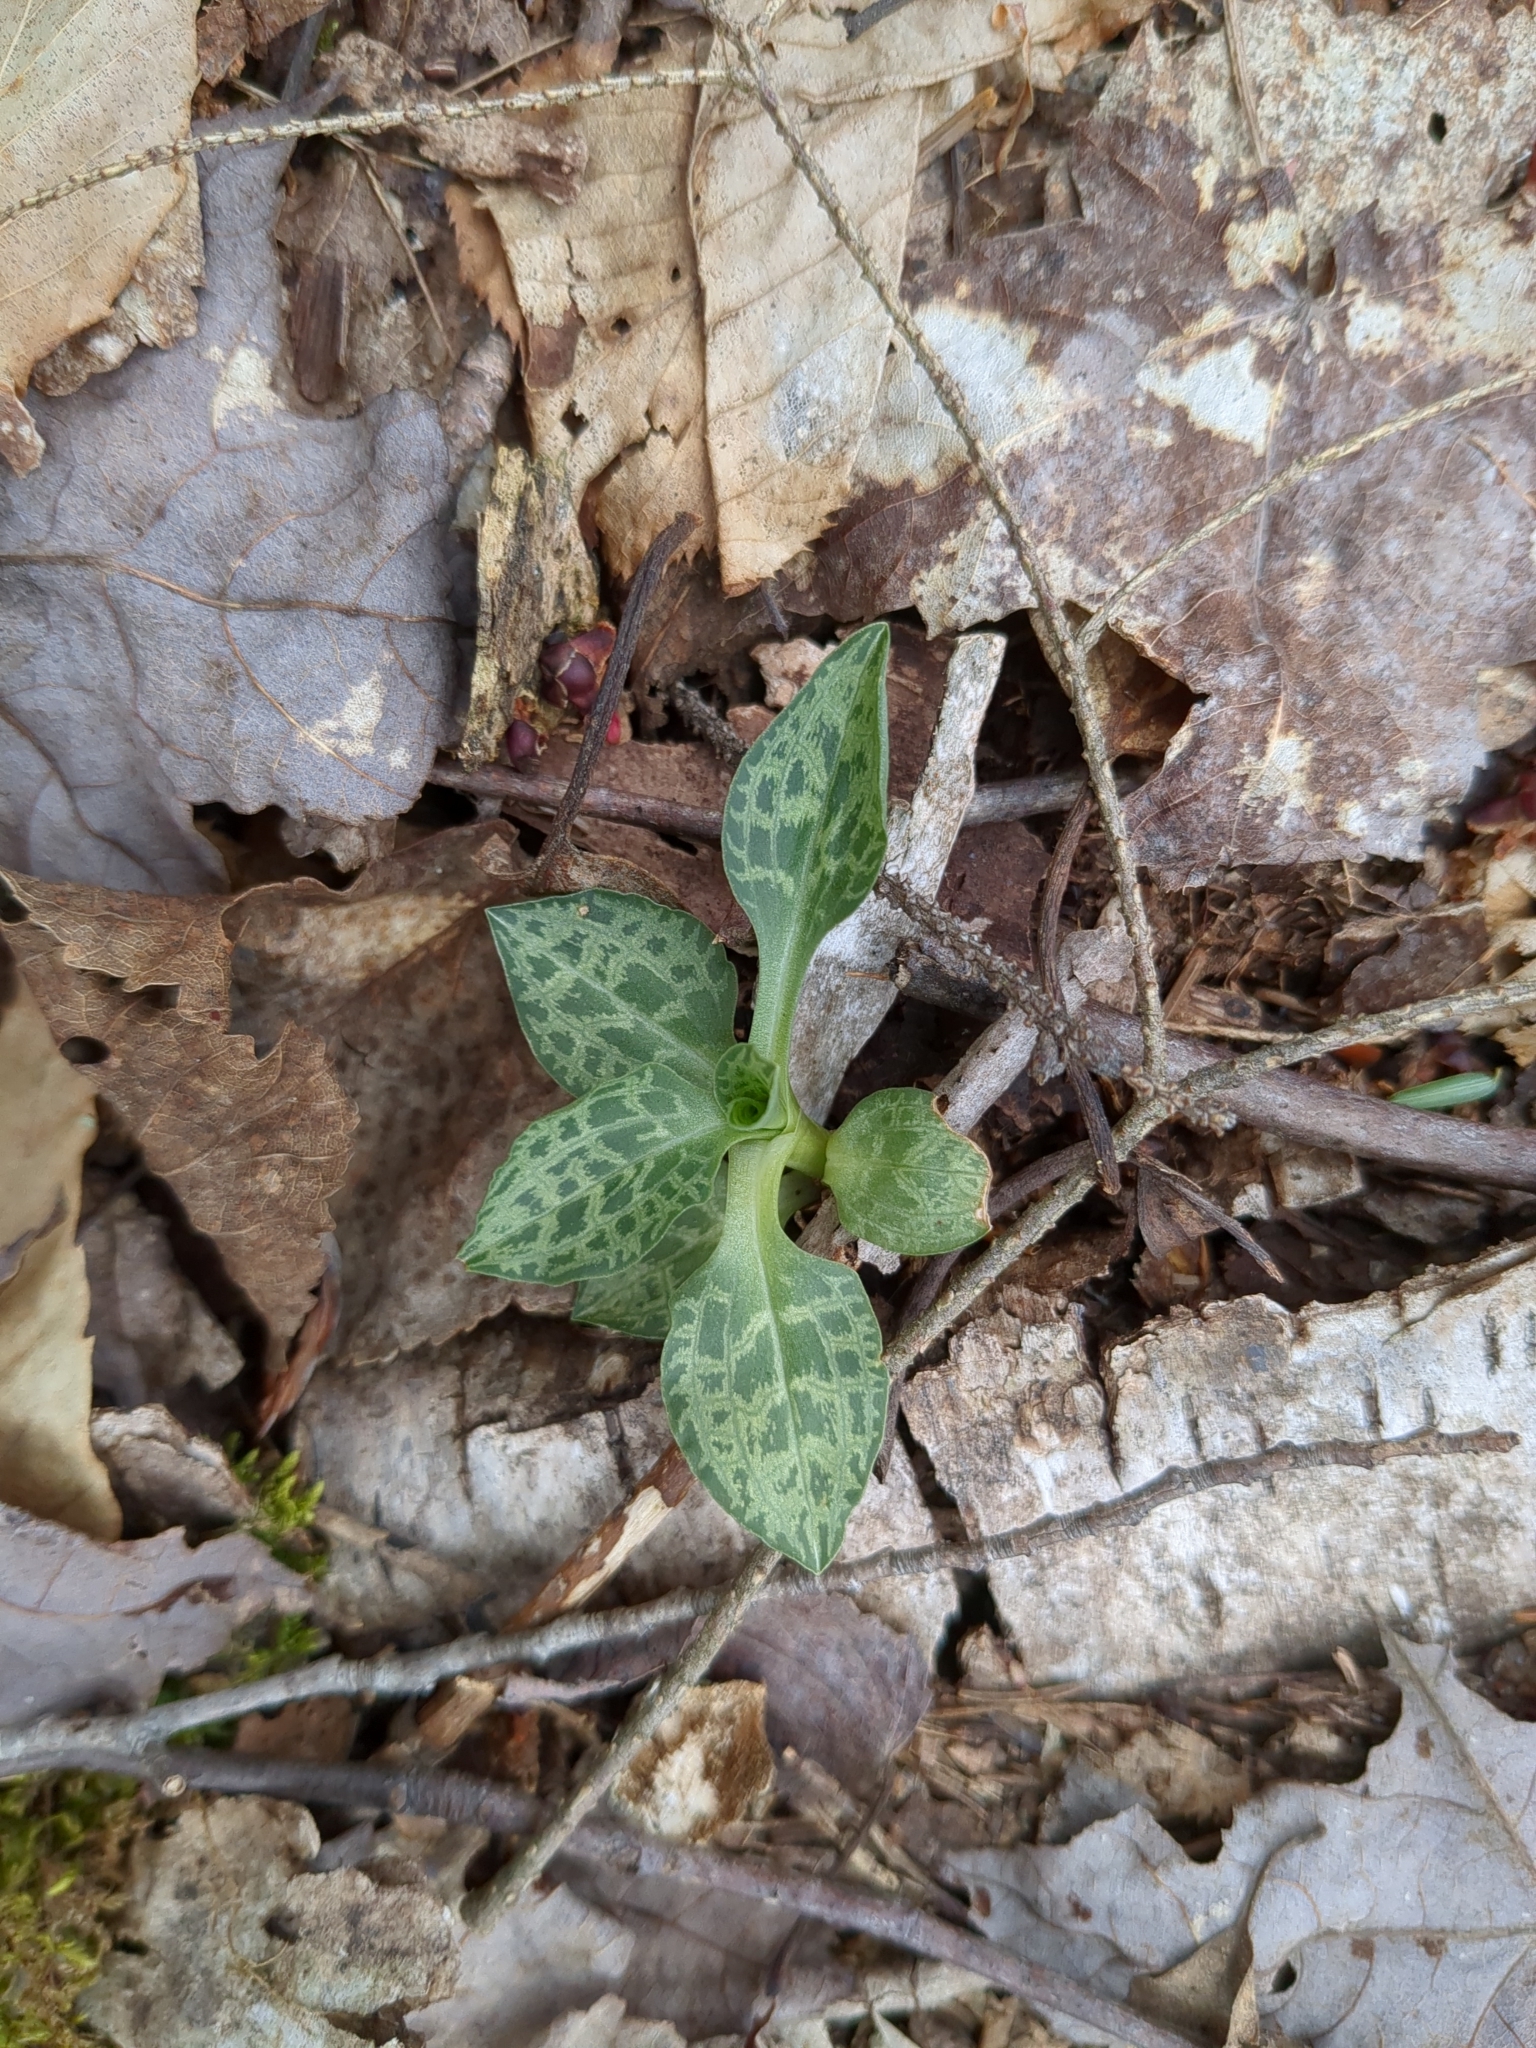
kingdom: Plantae
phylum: Tracheophyta
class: Liliopsida
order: Asparagales
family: Orchidaceae
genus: Goodyera
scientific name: Goodyera tesselata
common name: Checkered rattlesnake-plantain
